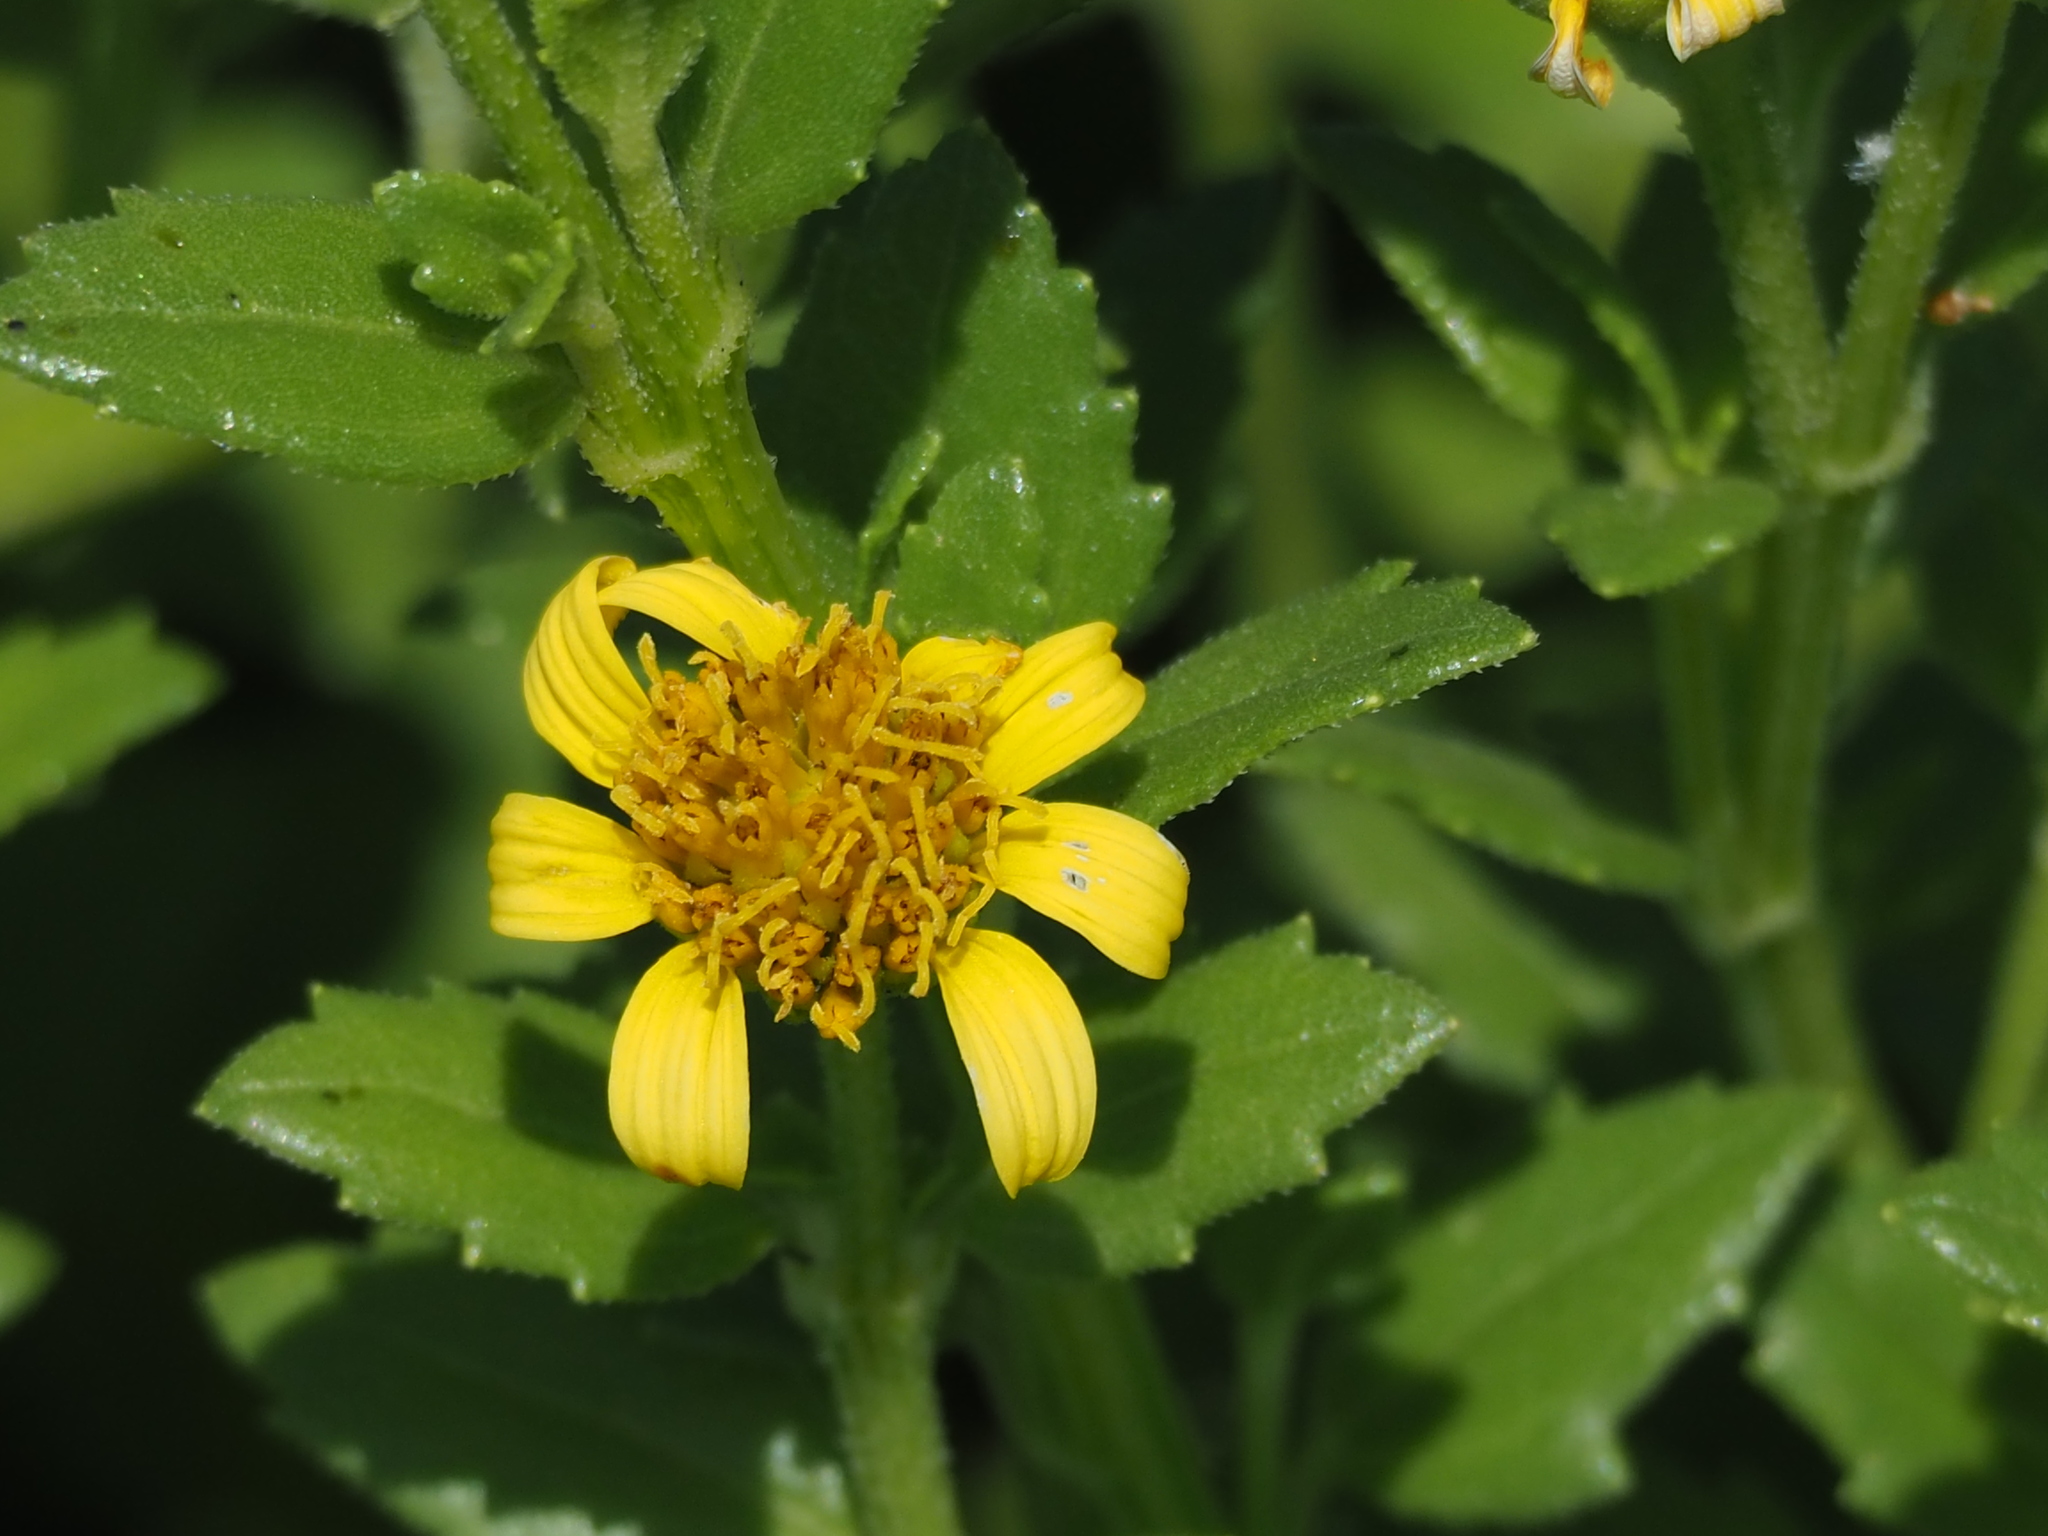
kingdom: Plantae
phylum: Tracheophyta
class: Magnoliopsida
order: Asterales
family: Asteraceae
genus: Melanthera
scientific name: Melanthera prostrata
